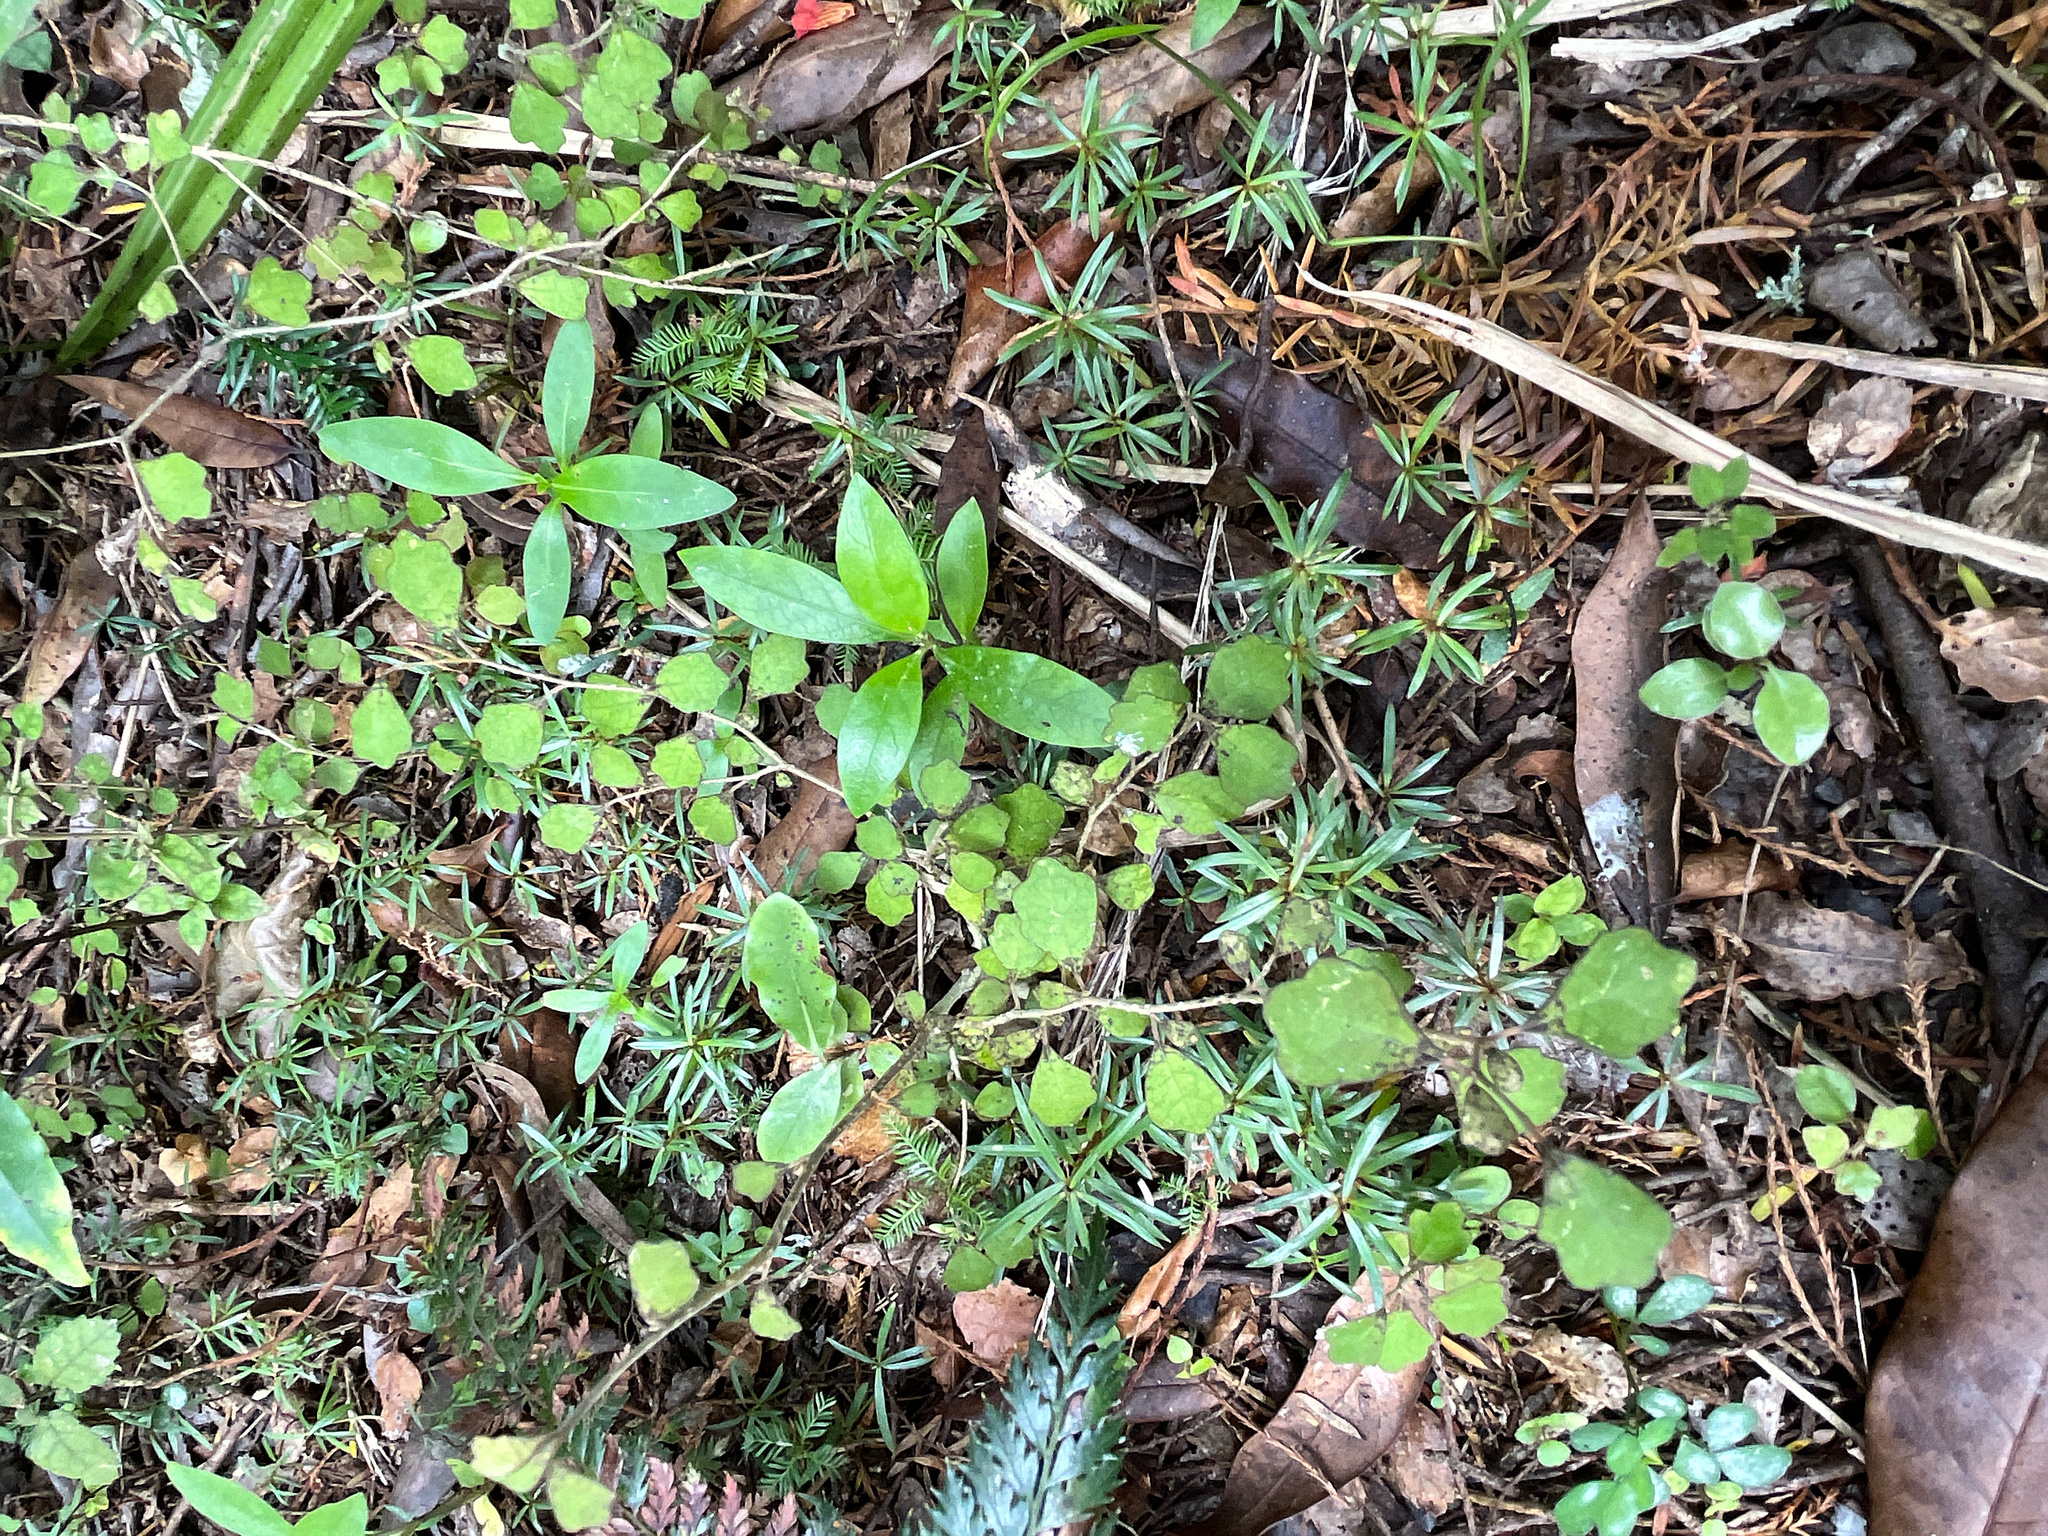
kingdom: Plantae
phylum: Tracheophyta
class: Magnoliopsida
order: Gentianales
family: Rubiaceae
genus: Coprosma
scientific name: Coprosma robusta
